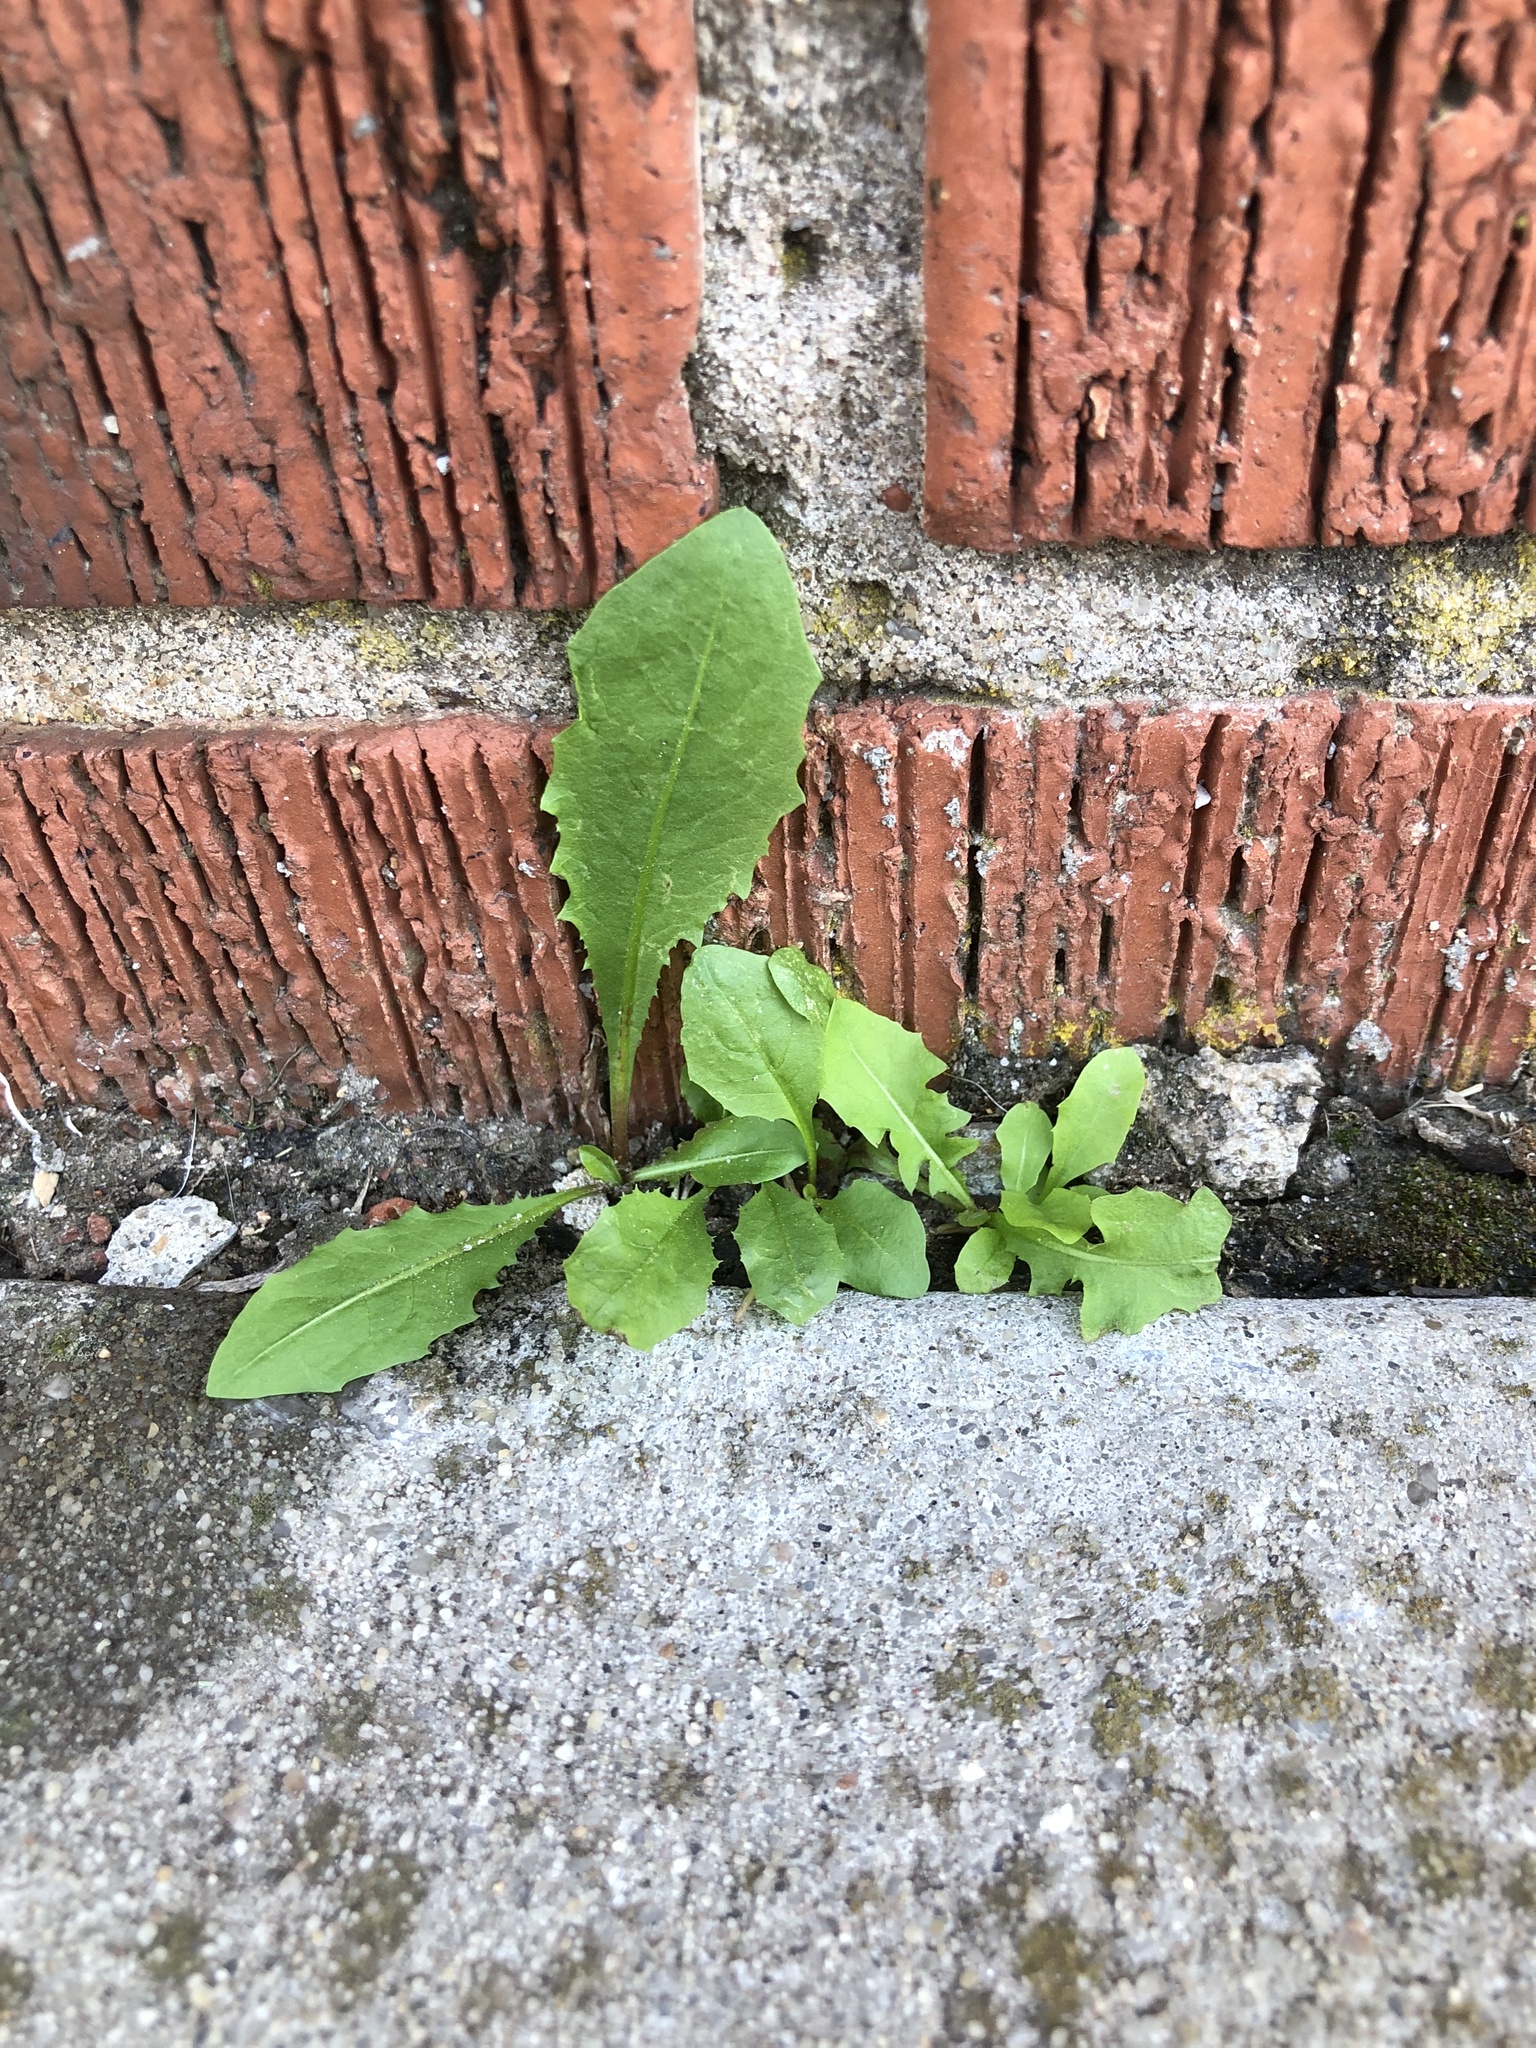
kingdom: Plantae
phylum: Tracheophyta
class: Magnoliopsida
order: Asterales
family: Asteraceae
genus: Taraxacum
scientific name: Taraxacum officinale
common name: Common dandelion
